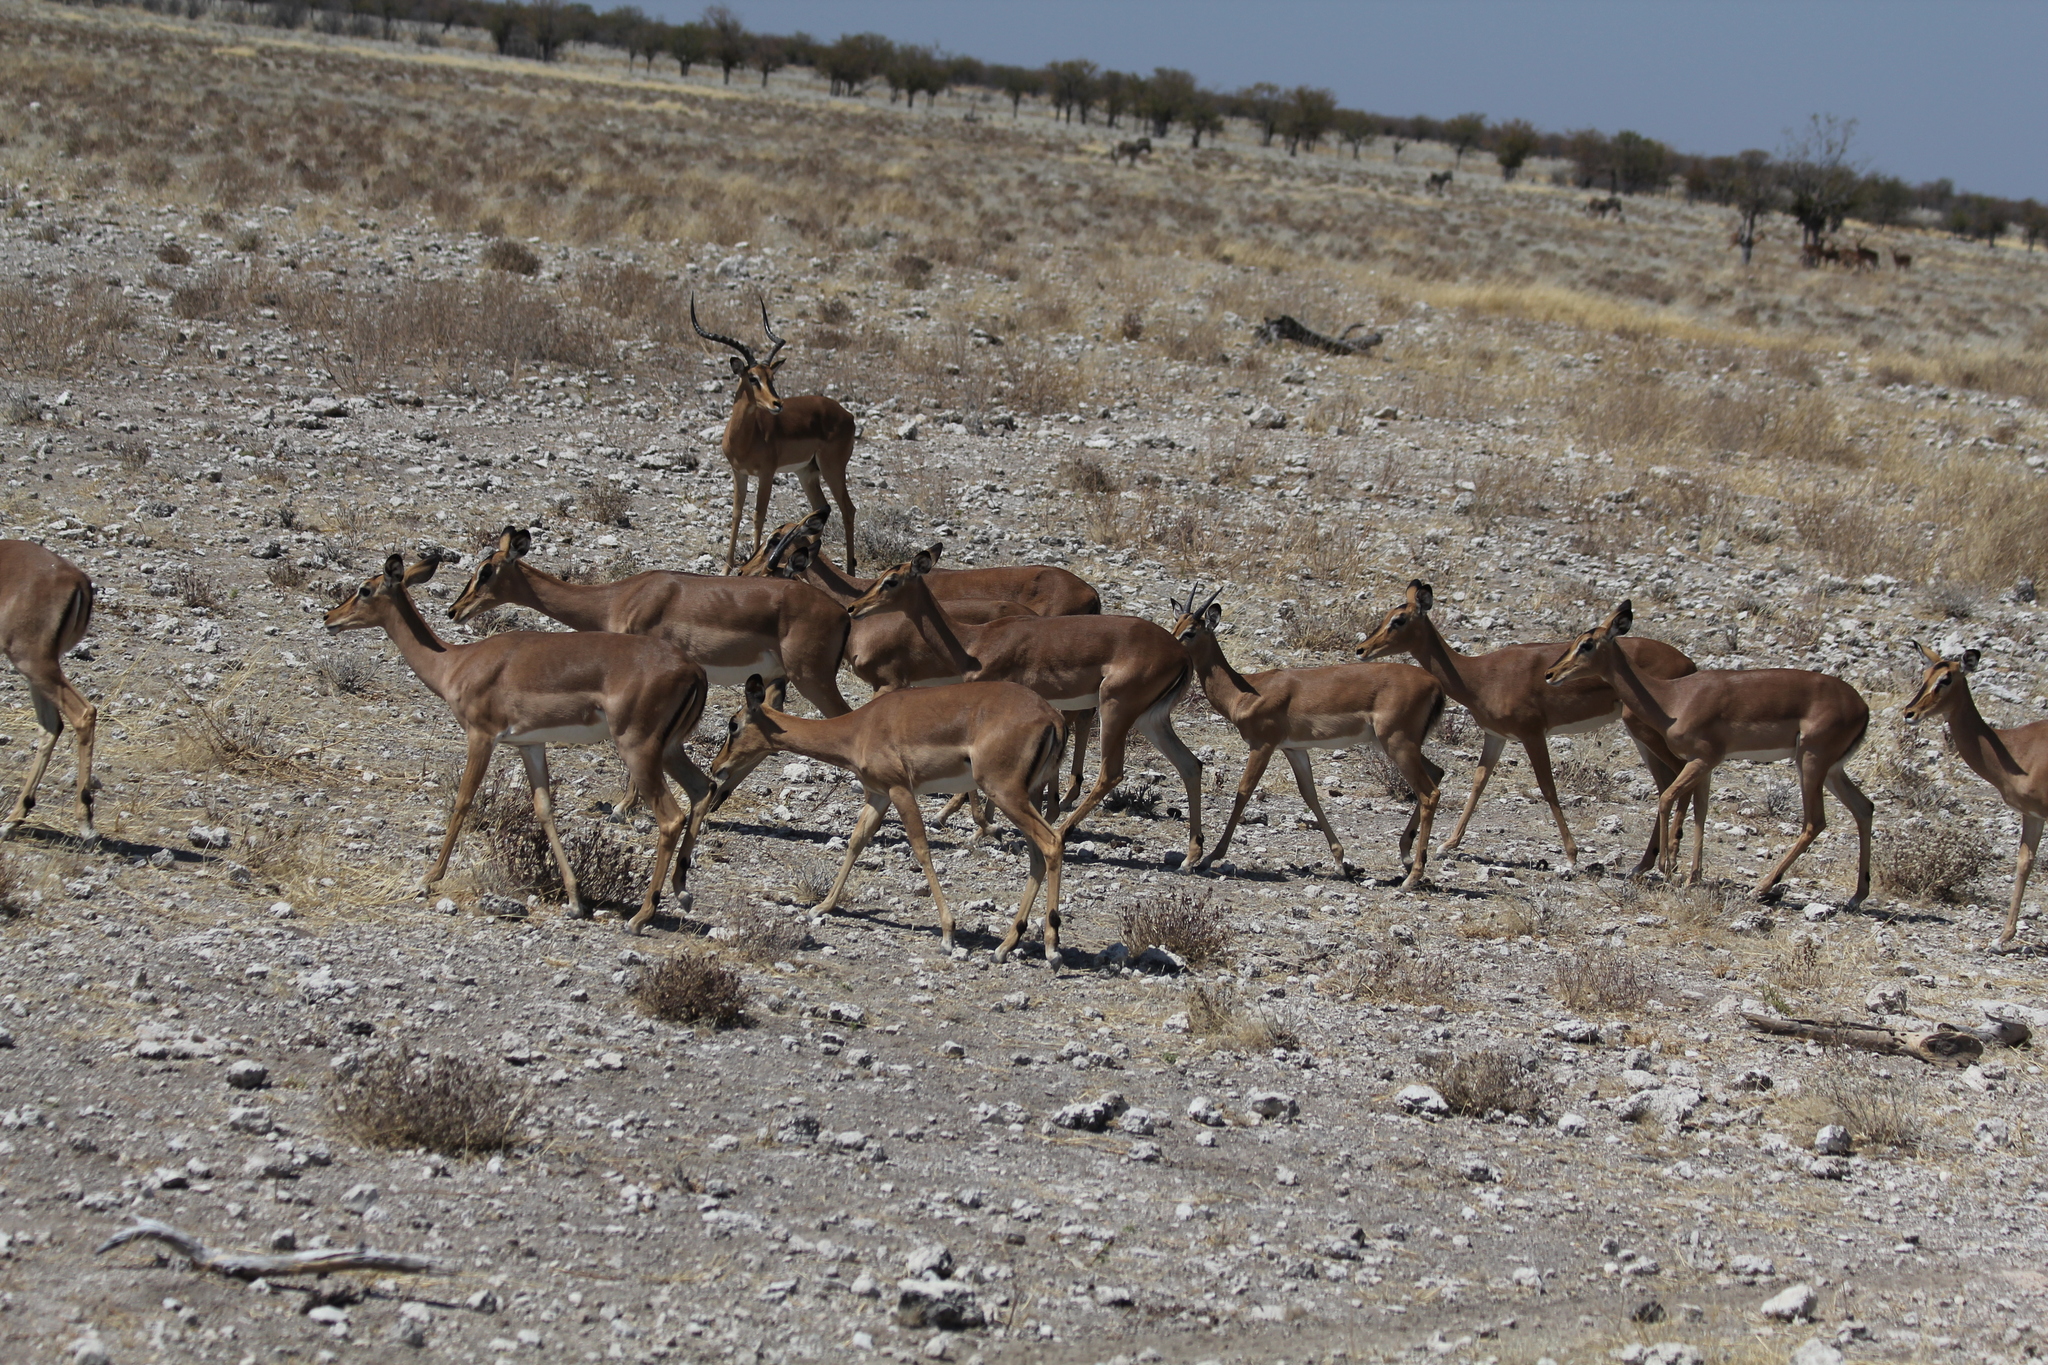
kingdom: Animalia
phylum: Chordata
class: Mammalia
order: Artiodactyla
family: Bovidae
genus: Aepyceros
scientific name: Aepyceros melampus
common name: Impala
